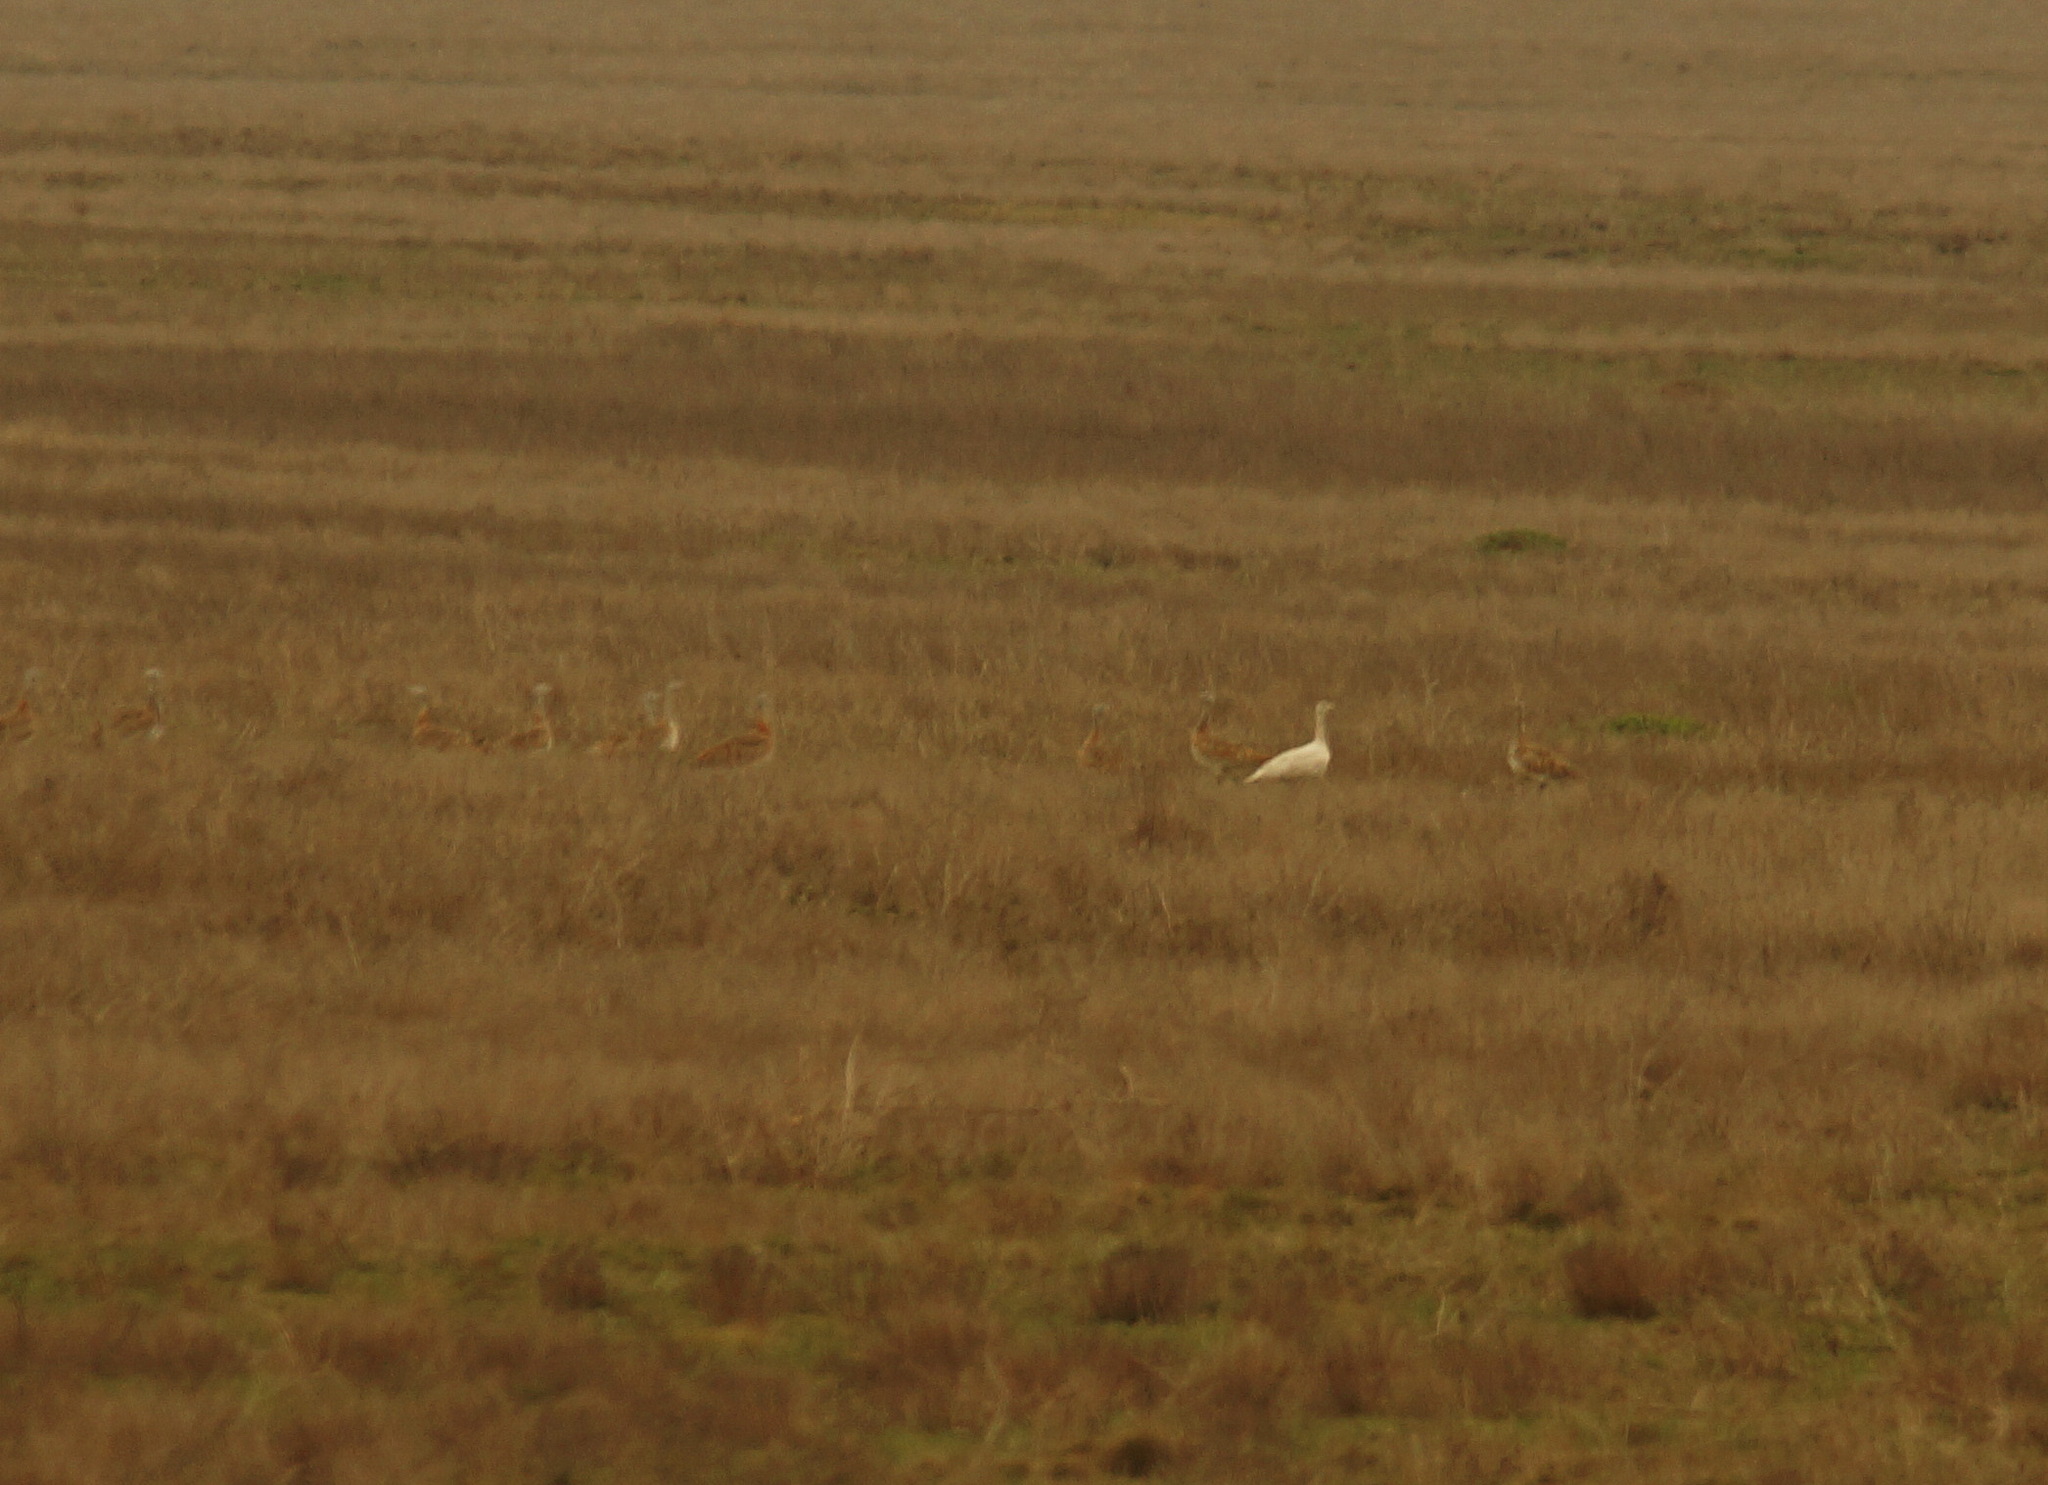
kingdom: Animalia
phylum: Chordata
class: Aves
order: Otidiformes
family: Otididae
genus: Otis
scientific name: Otis tarda
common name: Great bustard
